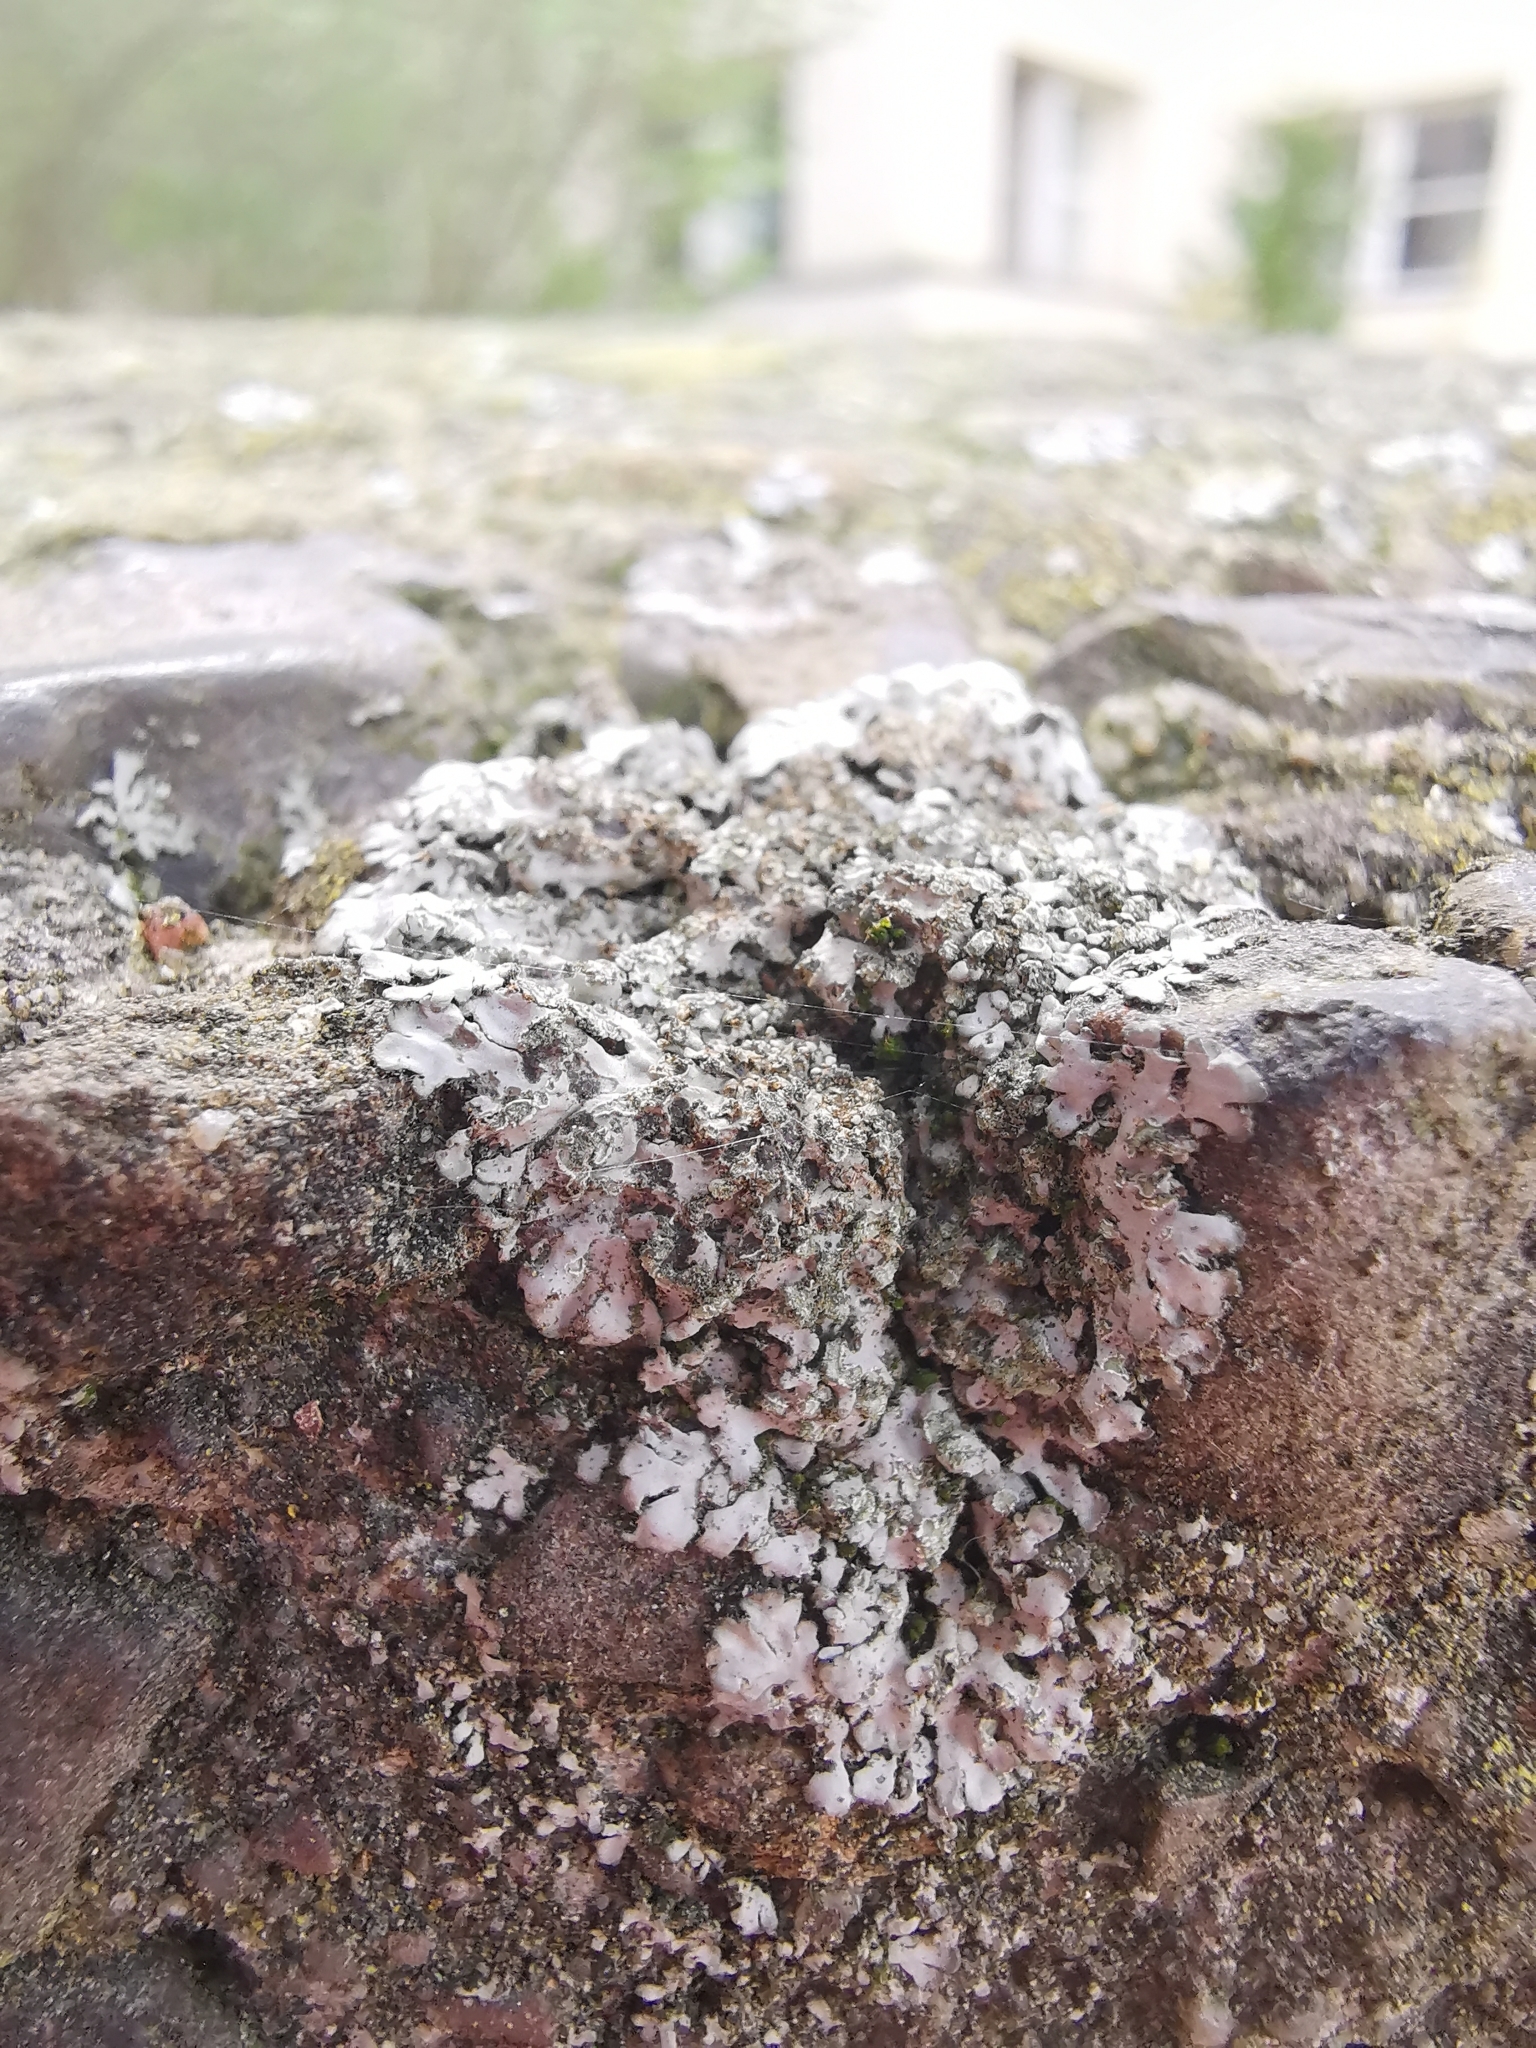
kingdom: Fungi
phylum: Ascomycota
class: Lecanoromycetes
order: Caliciales
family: Physciaceae
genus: Phaeophyscia
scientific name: Phaeophyscia orbicularis
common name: Mealy shadow lichen
